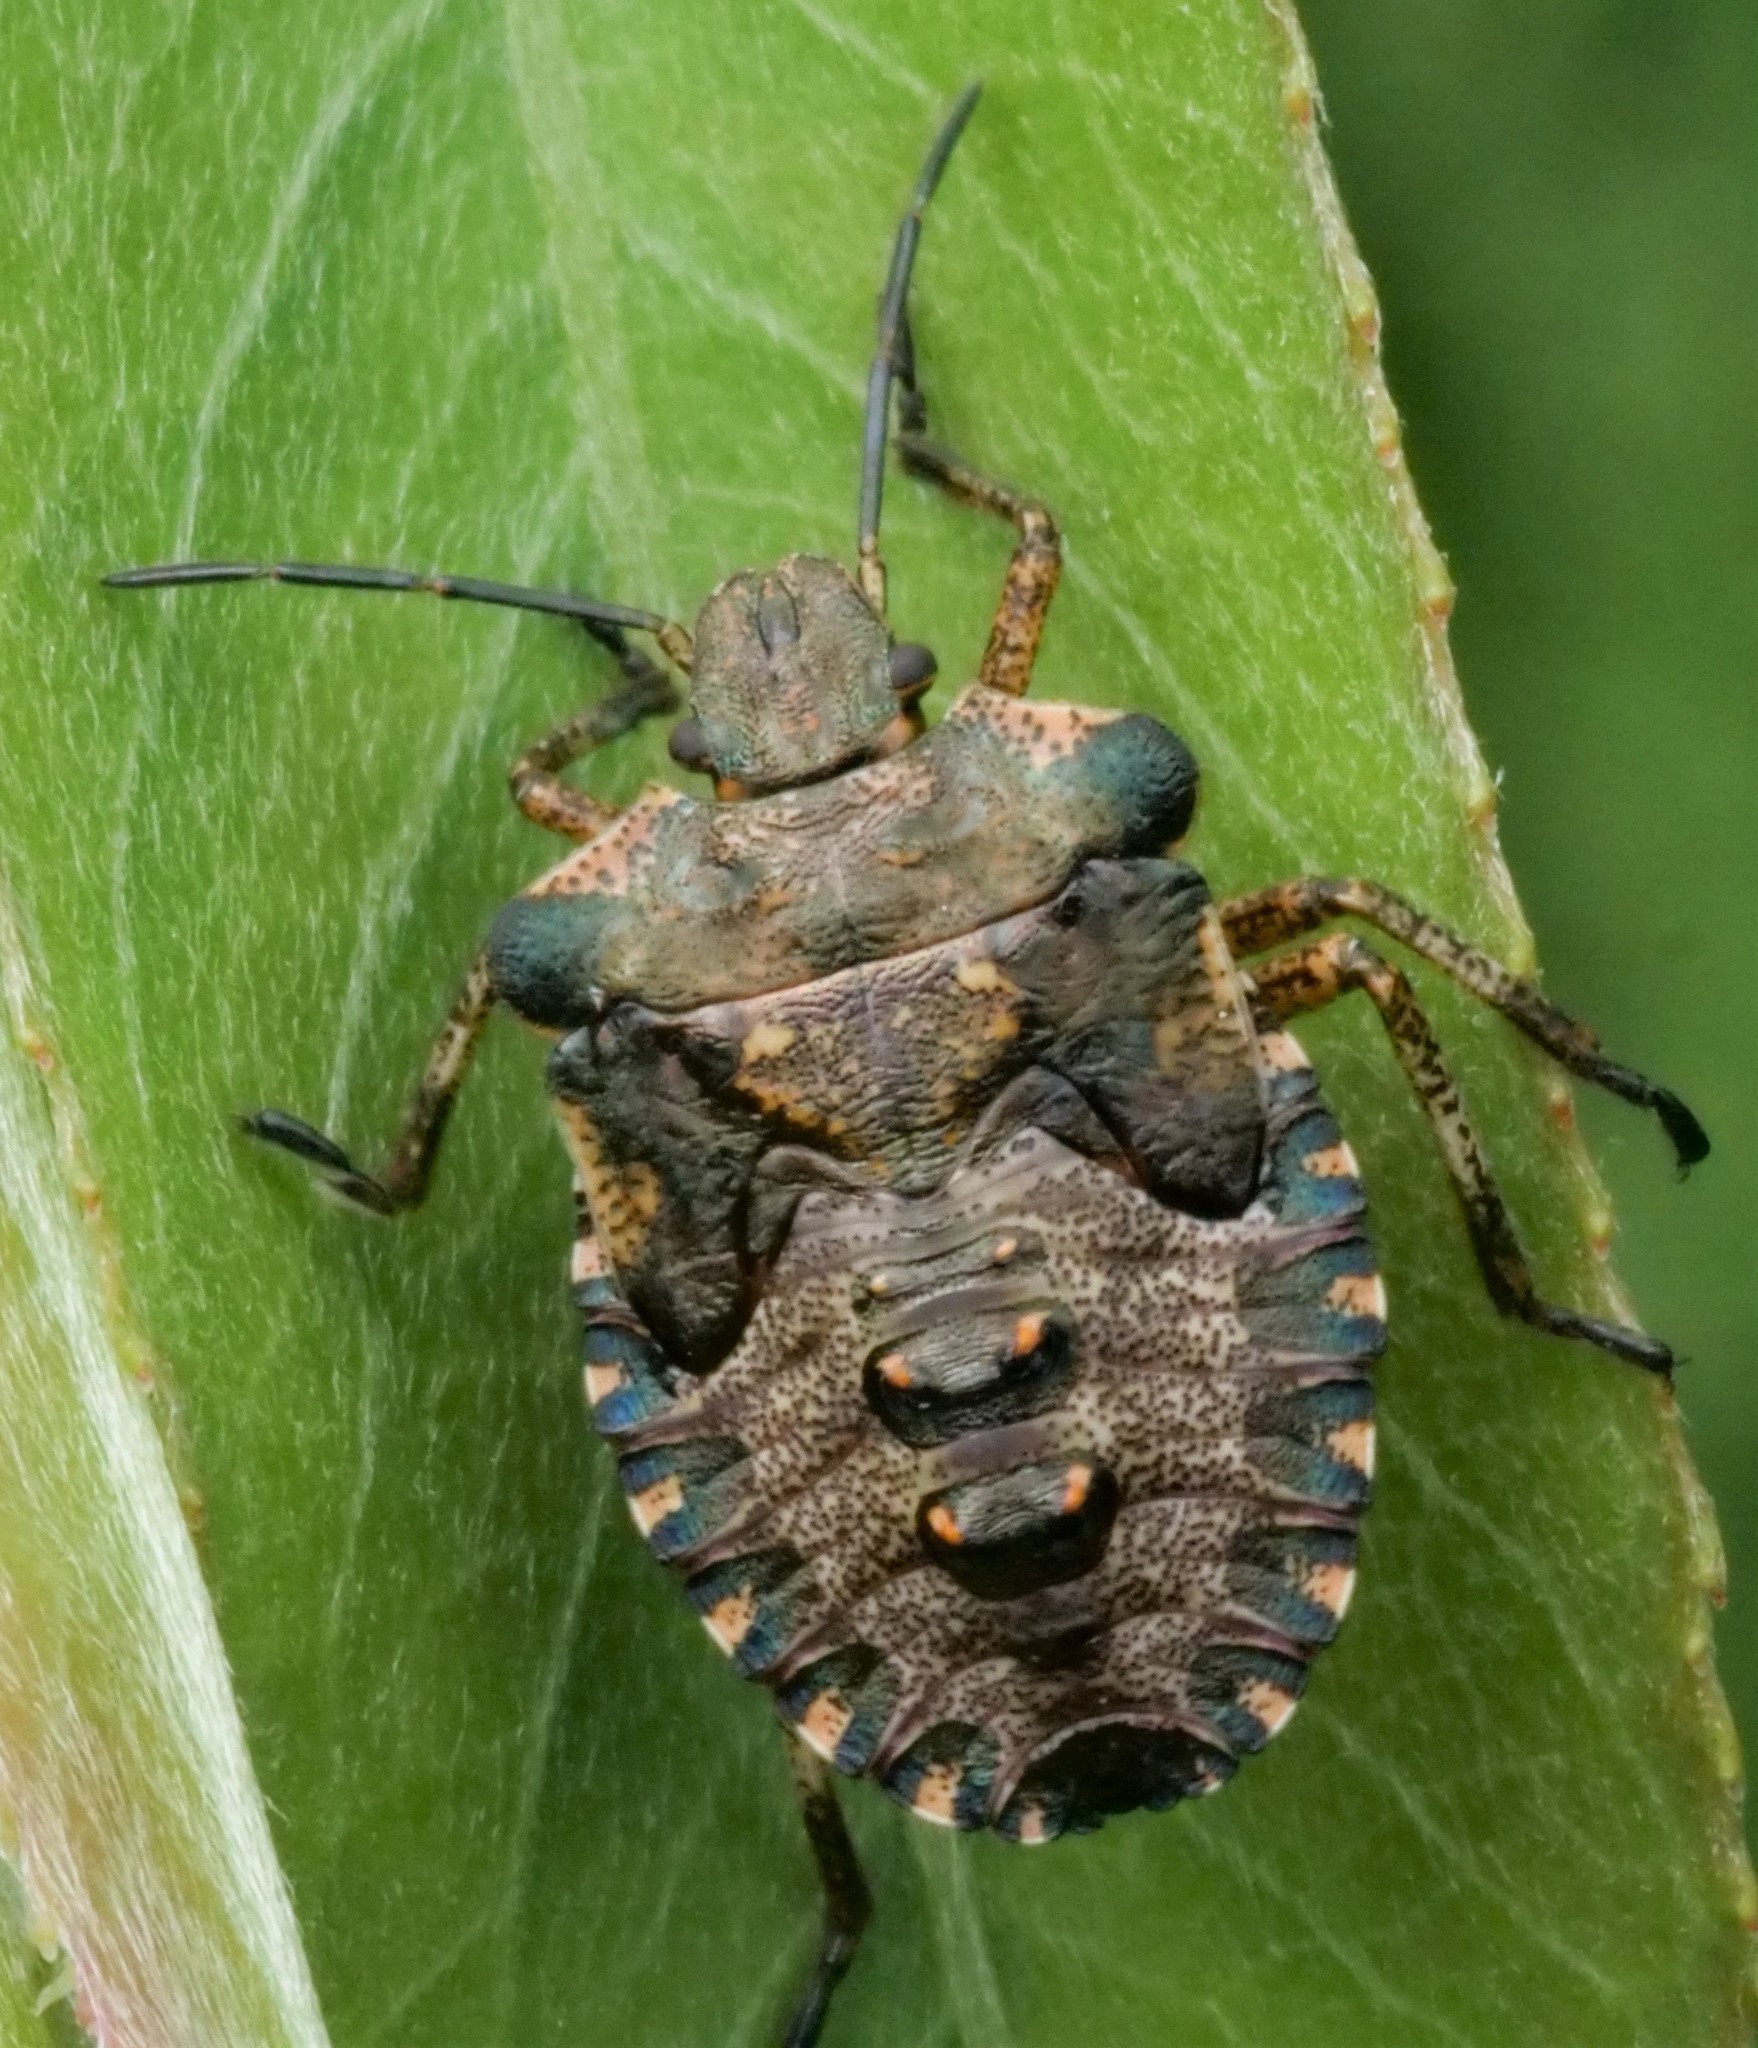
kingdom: Animalia
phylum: Arthropoda
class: Insecta
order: Hemiptera
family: Pentatomidae
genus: Pentatoma
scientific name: Pentatoma rufipes
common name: Forest bug
